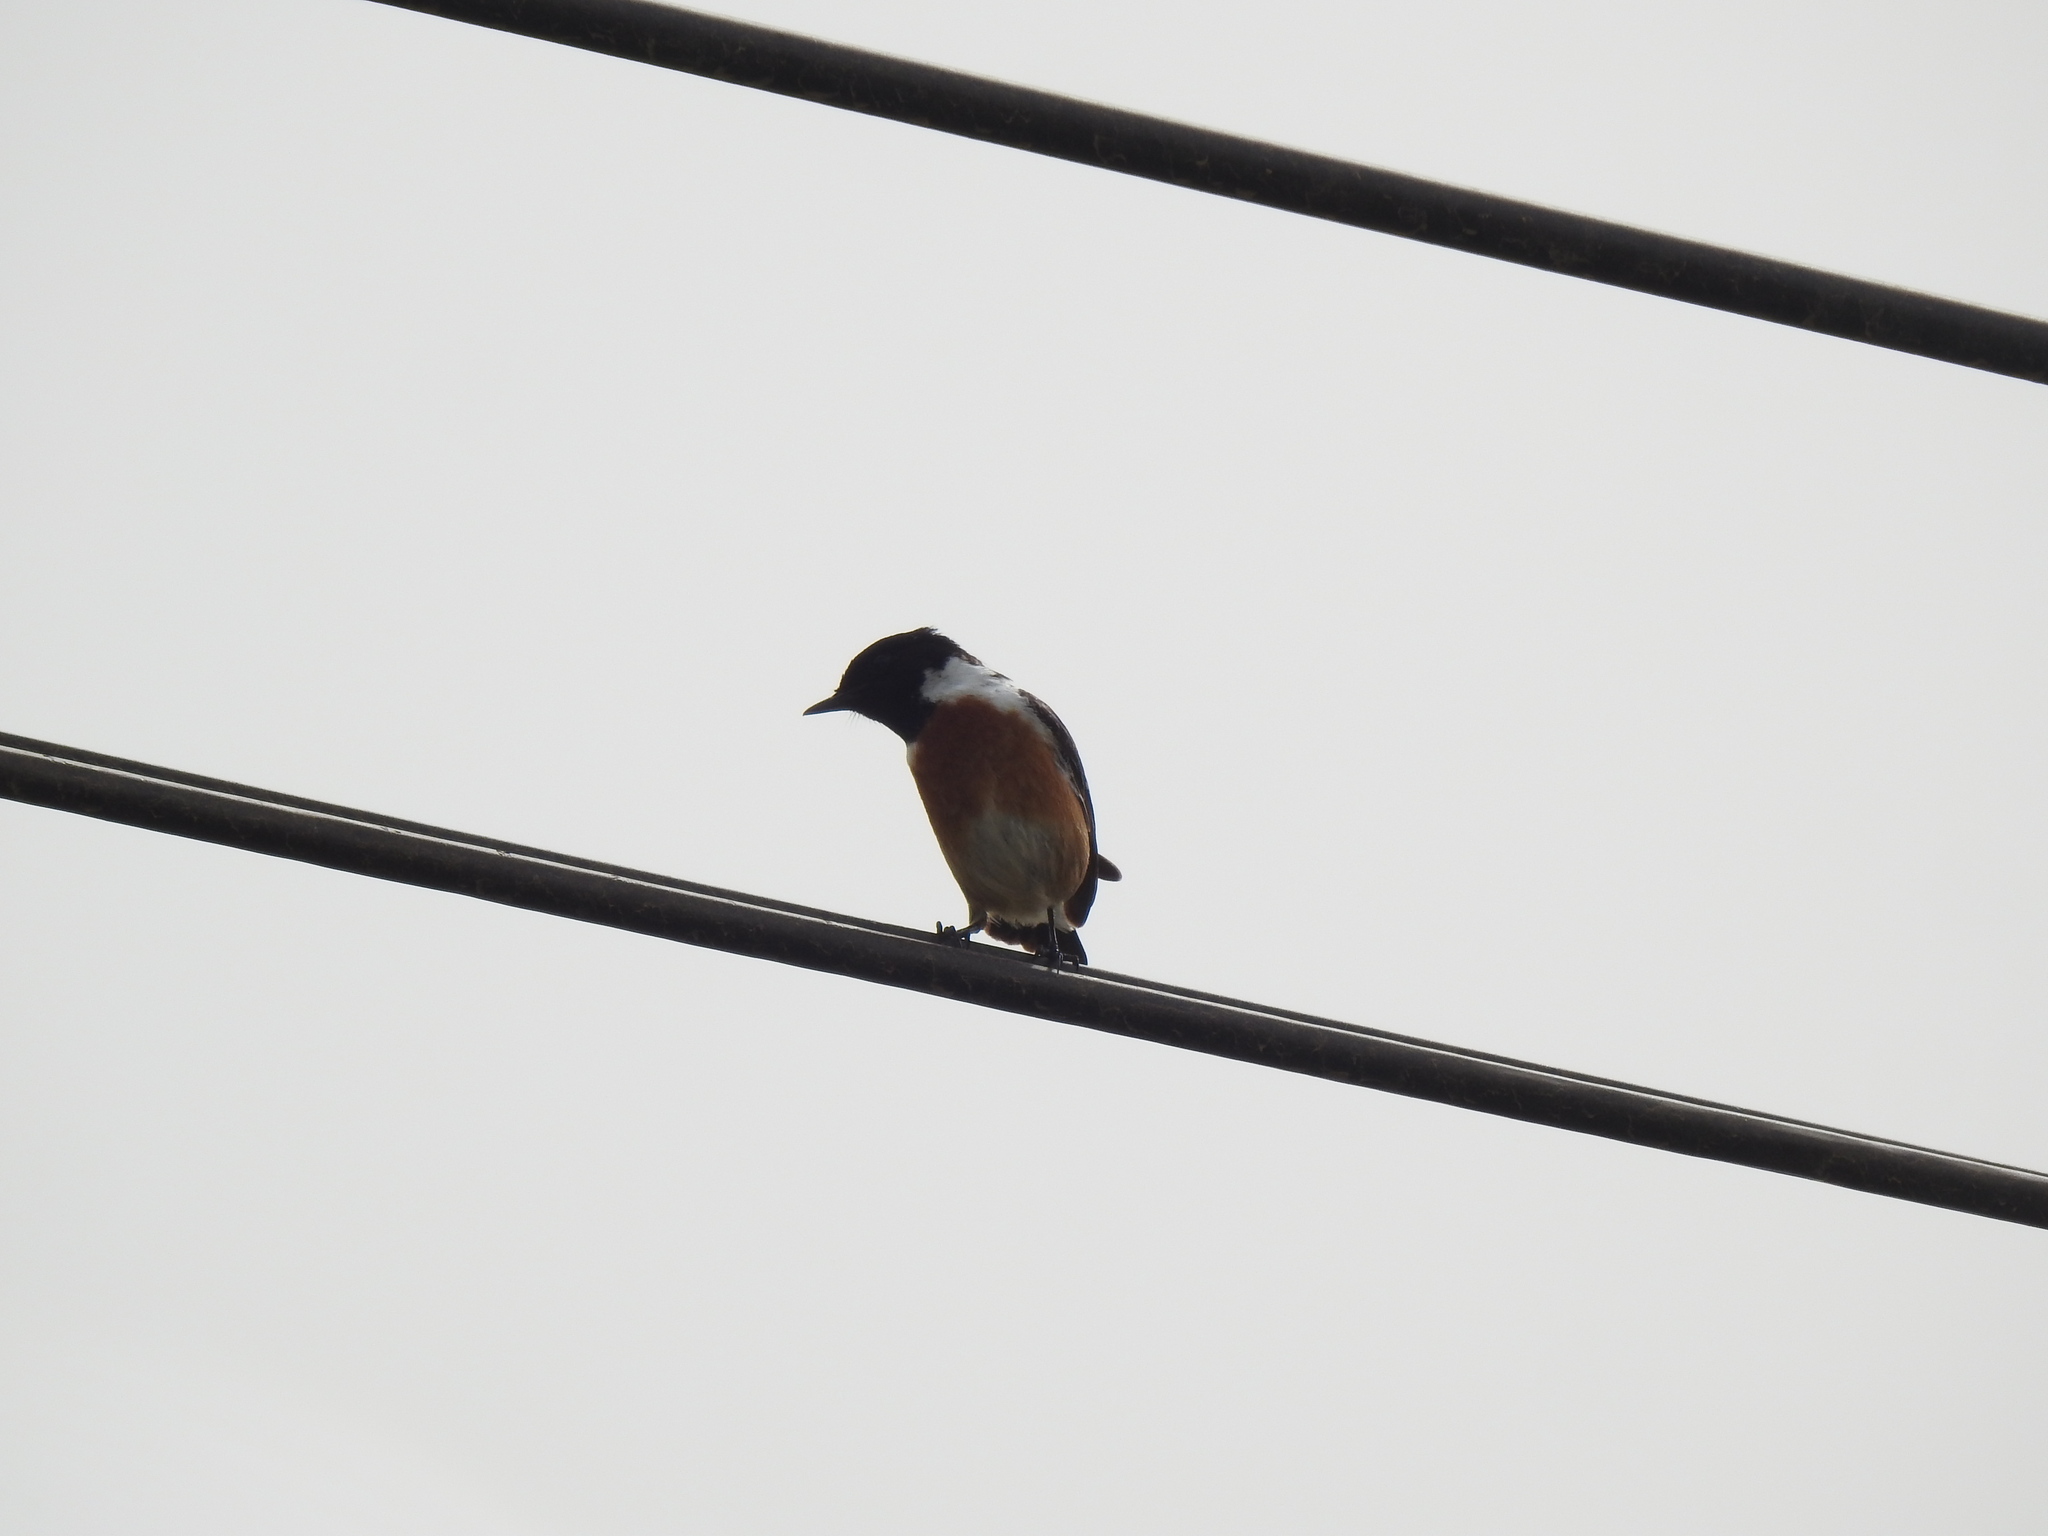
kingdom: Animalia
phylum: Chordata
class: Aves
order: Passeriformes
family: Muscicapidae
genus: Saxicola
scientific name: Saxicola rubicola
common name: European stonechat
